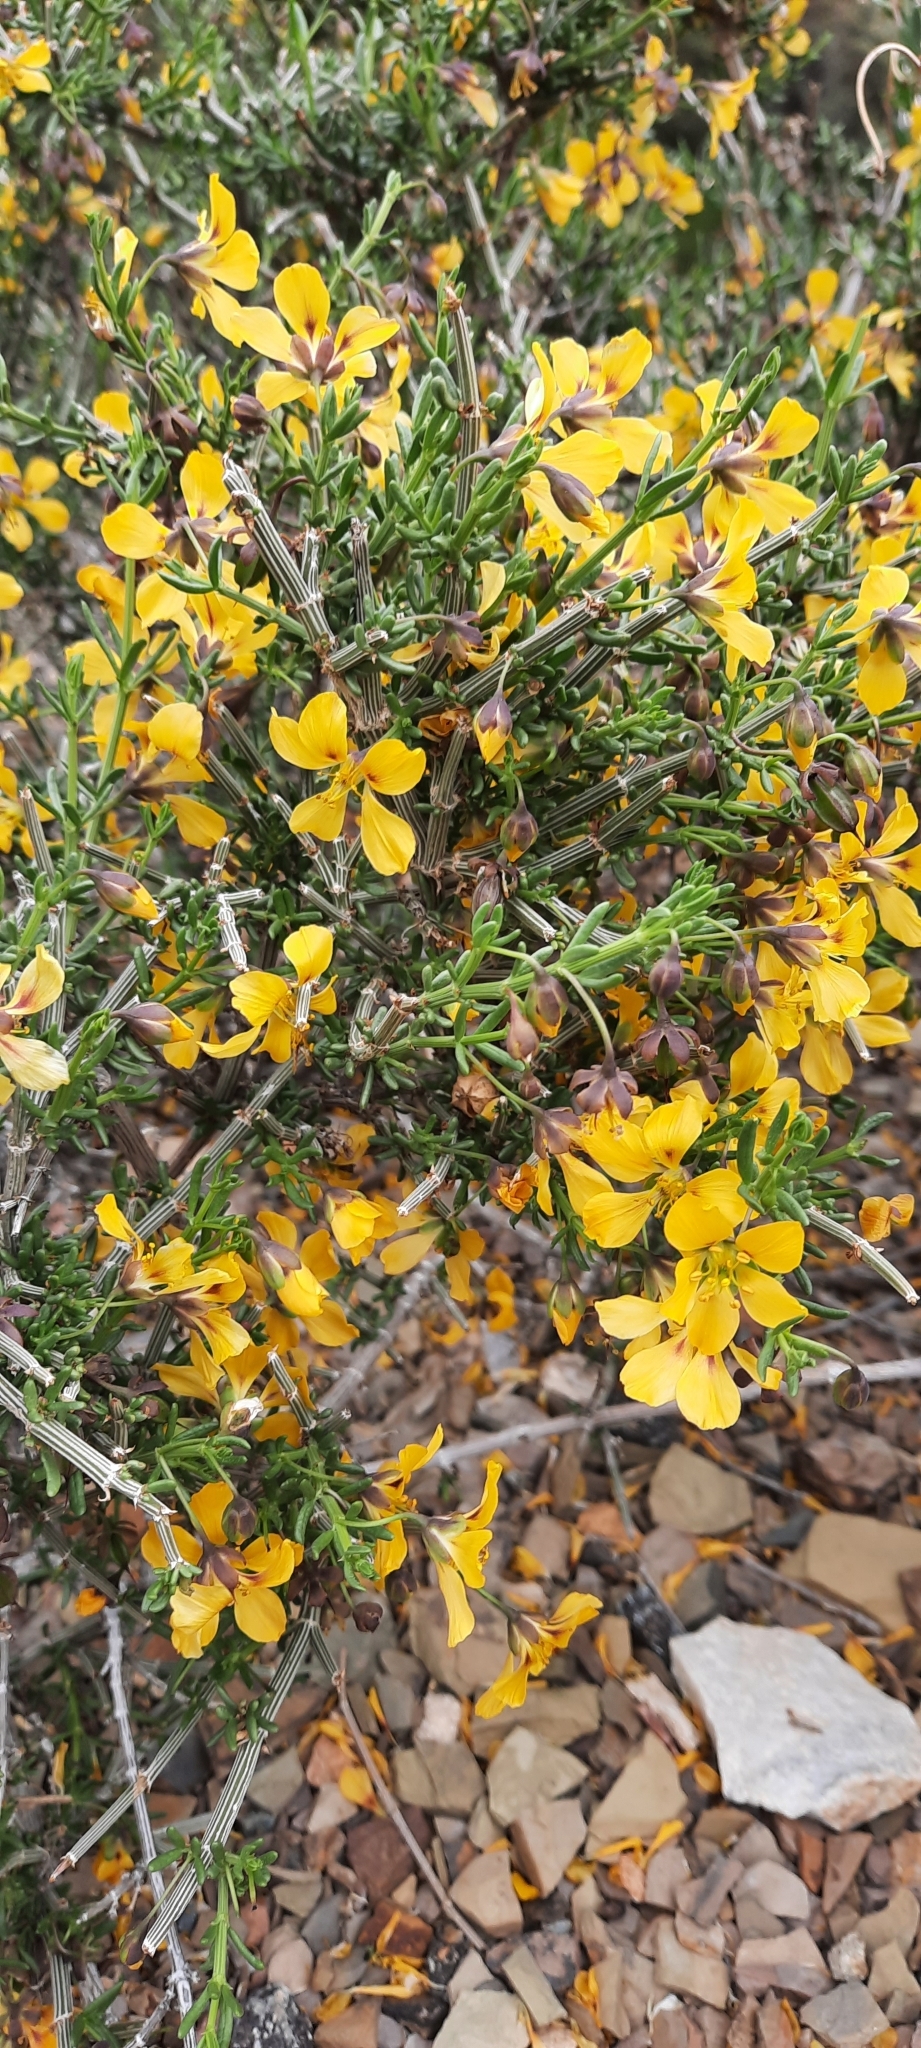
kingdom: Plantae
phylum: Tracheophyta
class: Magnoliopsida
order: Zygophyllales
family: Zygophyllaceae
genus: Roepera
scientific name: Roepera maculata
